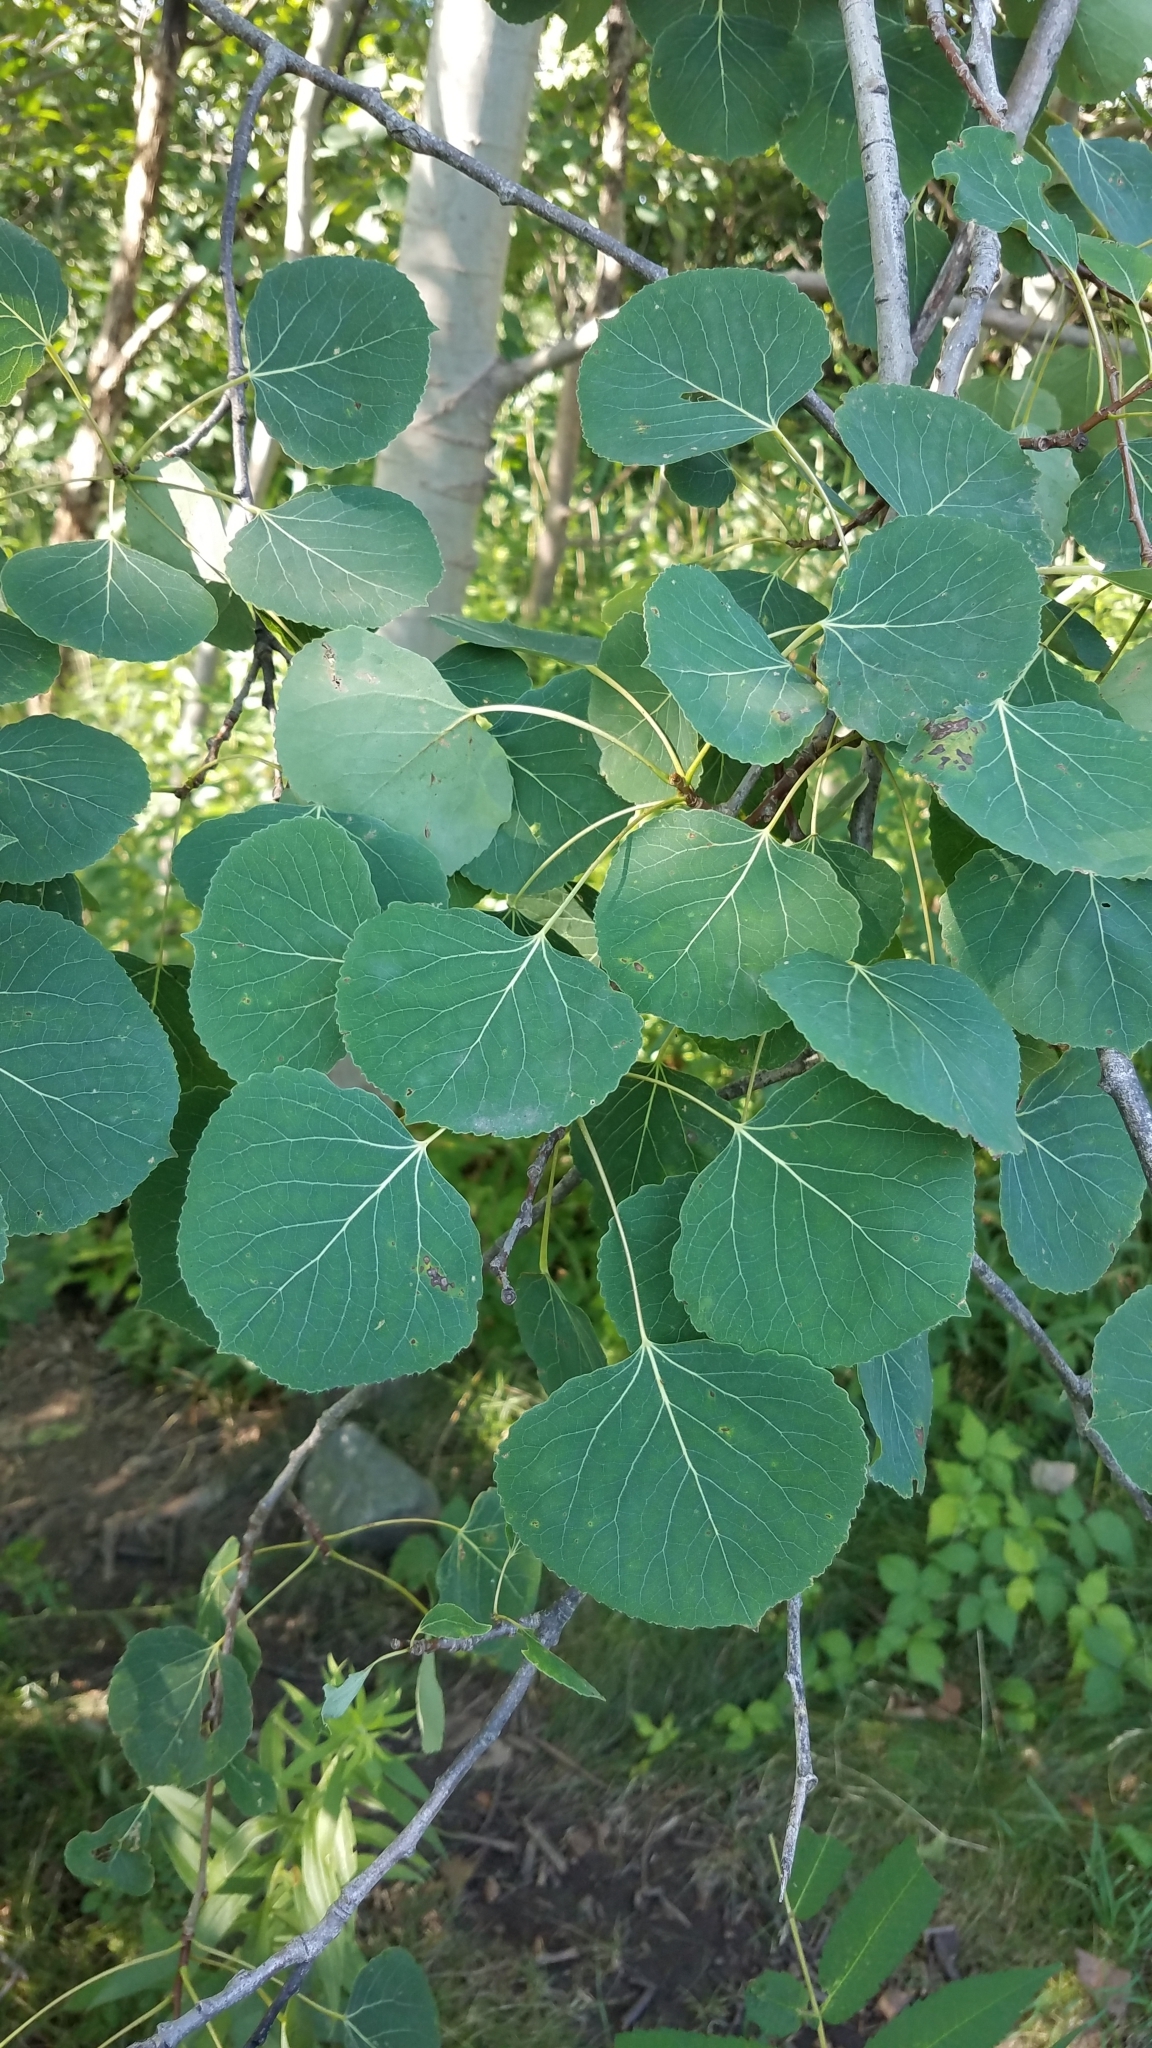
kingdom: Plantae
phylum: Tracheophyta
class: Magnoliopsida
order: Malpighiales
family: Salicaceae
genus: Populus
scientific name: Populus tremuloides
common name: Quaking aspen
